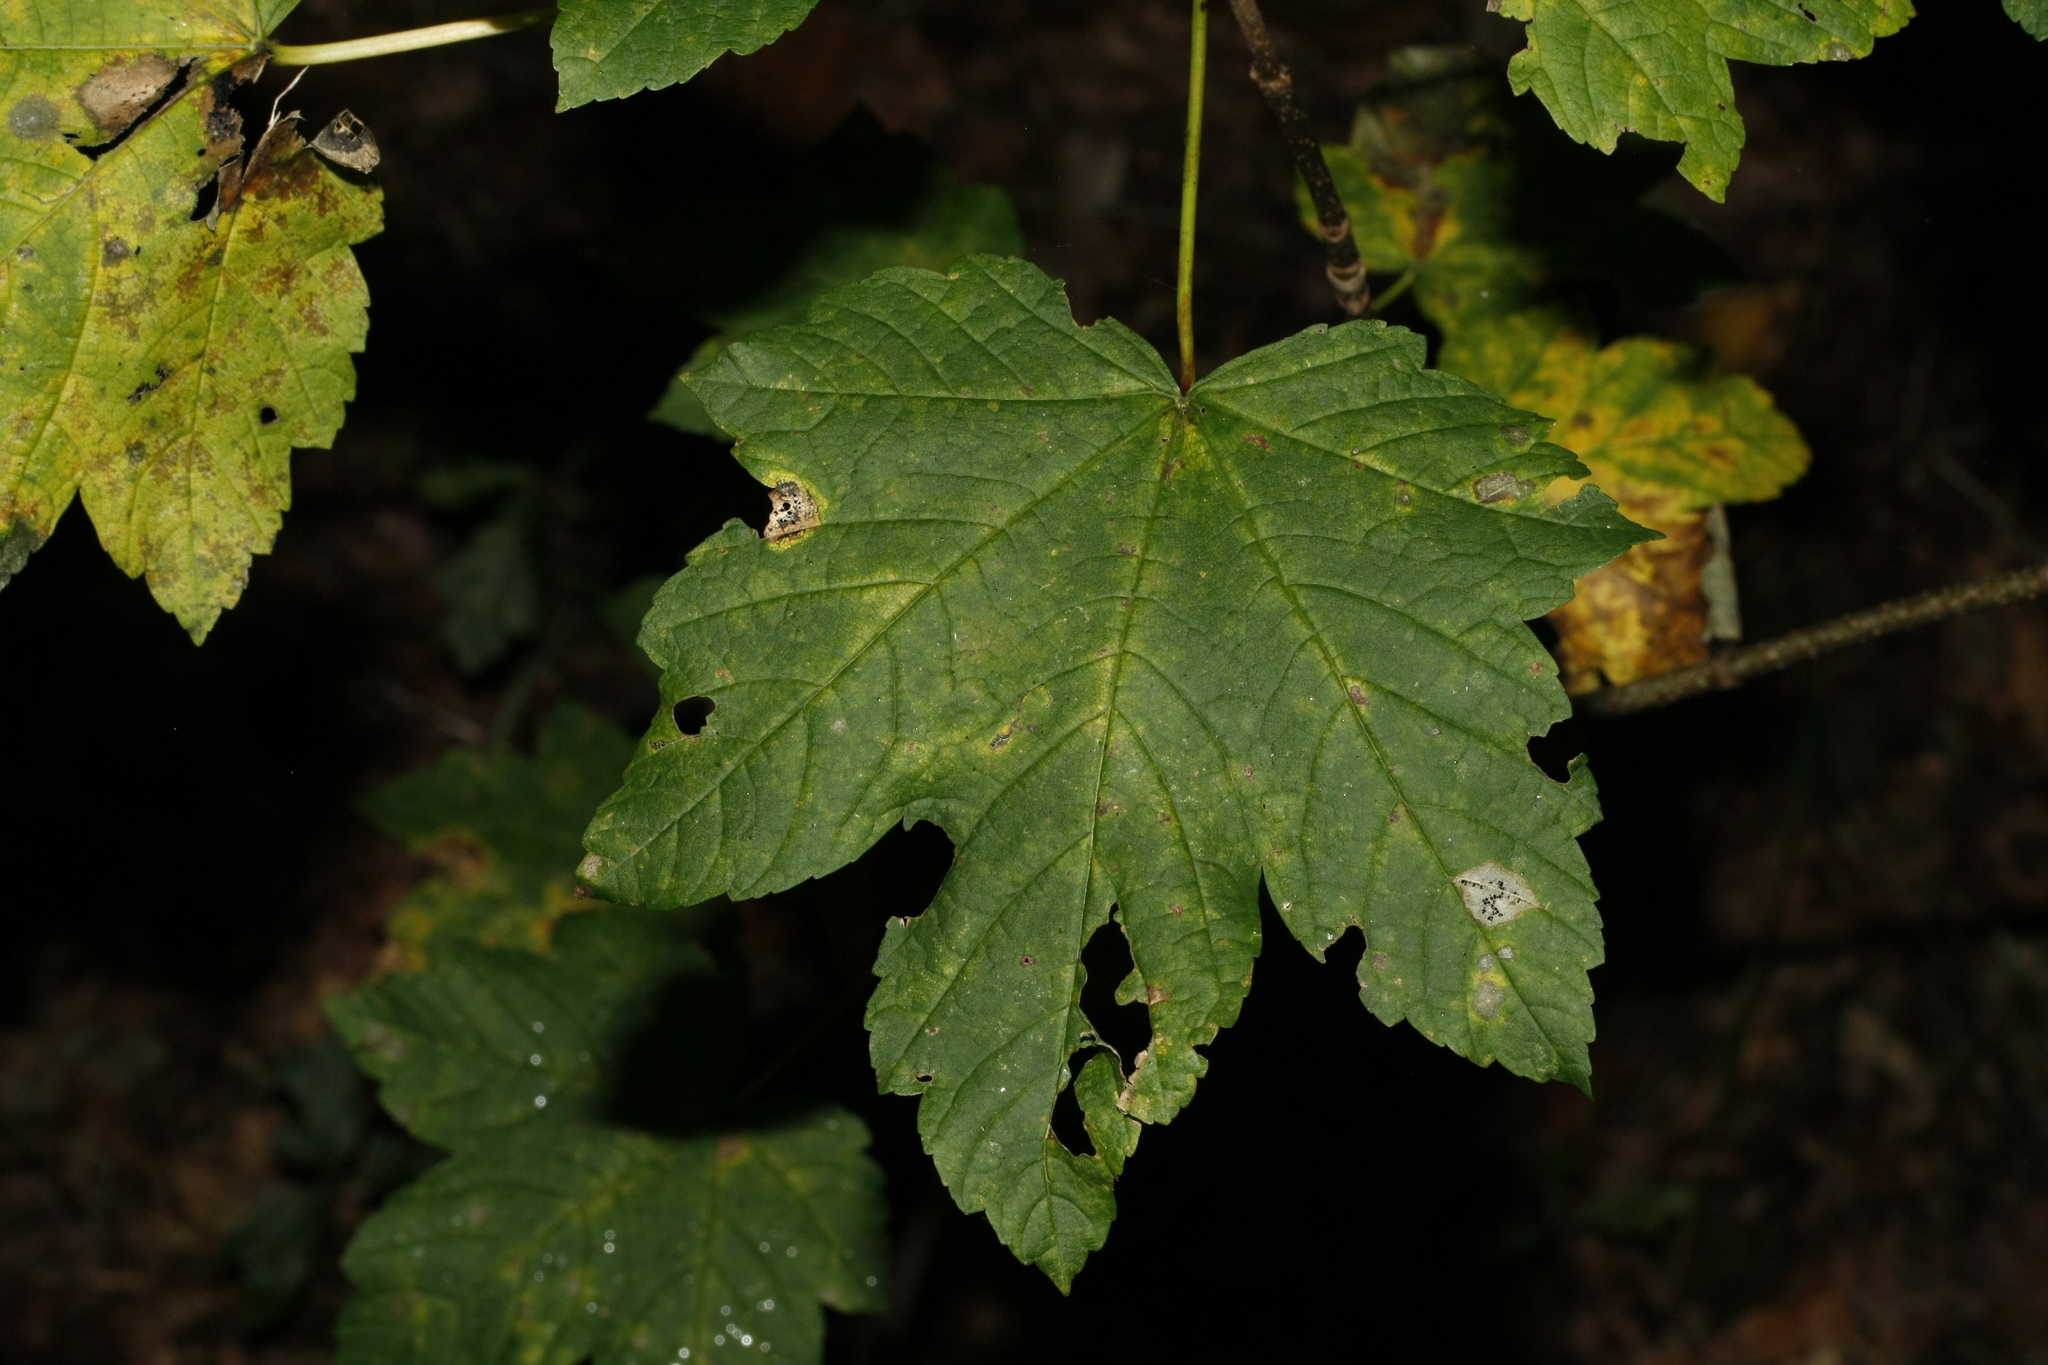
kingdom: Plantae
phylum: Tracheophyta
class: Magnoliopsida
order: Sapindales
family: Sapindaceae
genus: Acer
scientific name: Acer pseudoplatanus
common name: Sycamore
